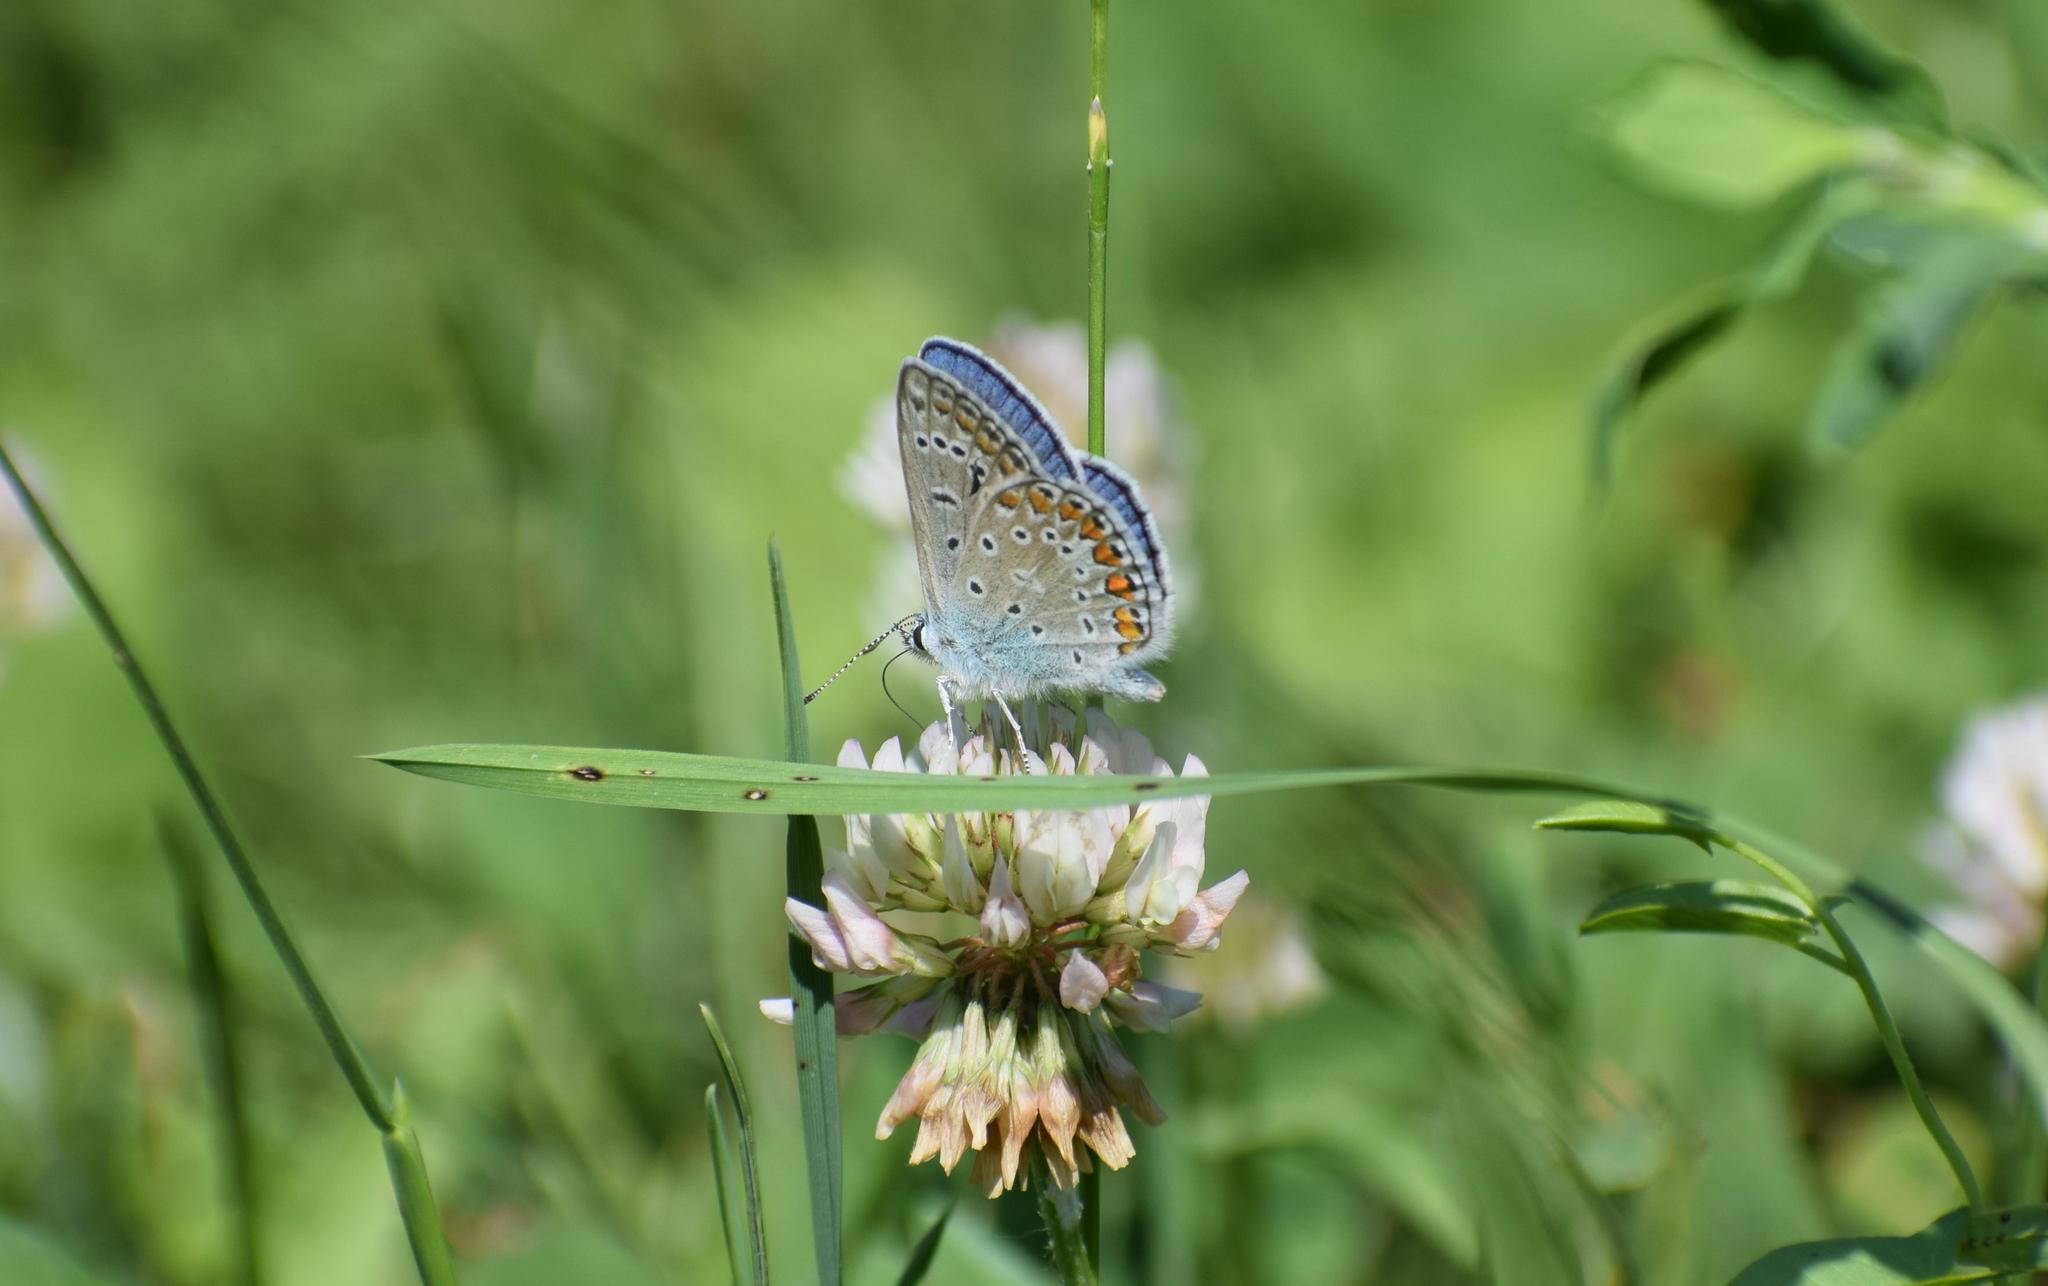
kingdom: Animalia
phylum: Arthropoda
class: Insecta
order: Lepidoptera
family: Lycaenidae
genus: Polyommatus
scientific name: Polyommatus icarus
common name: Common blue
